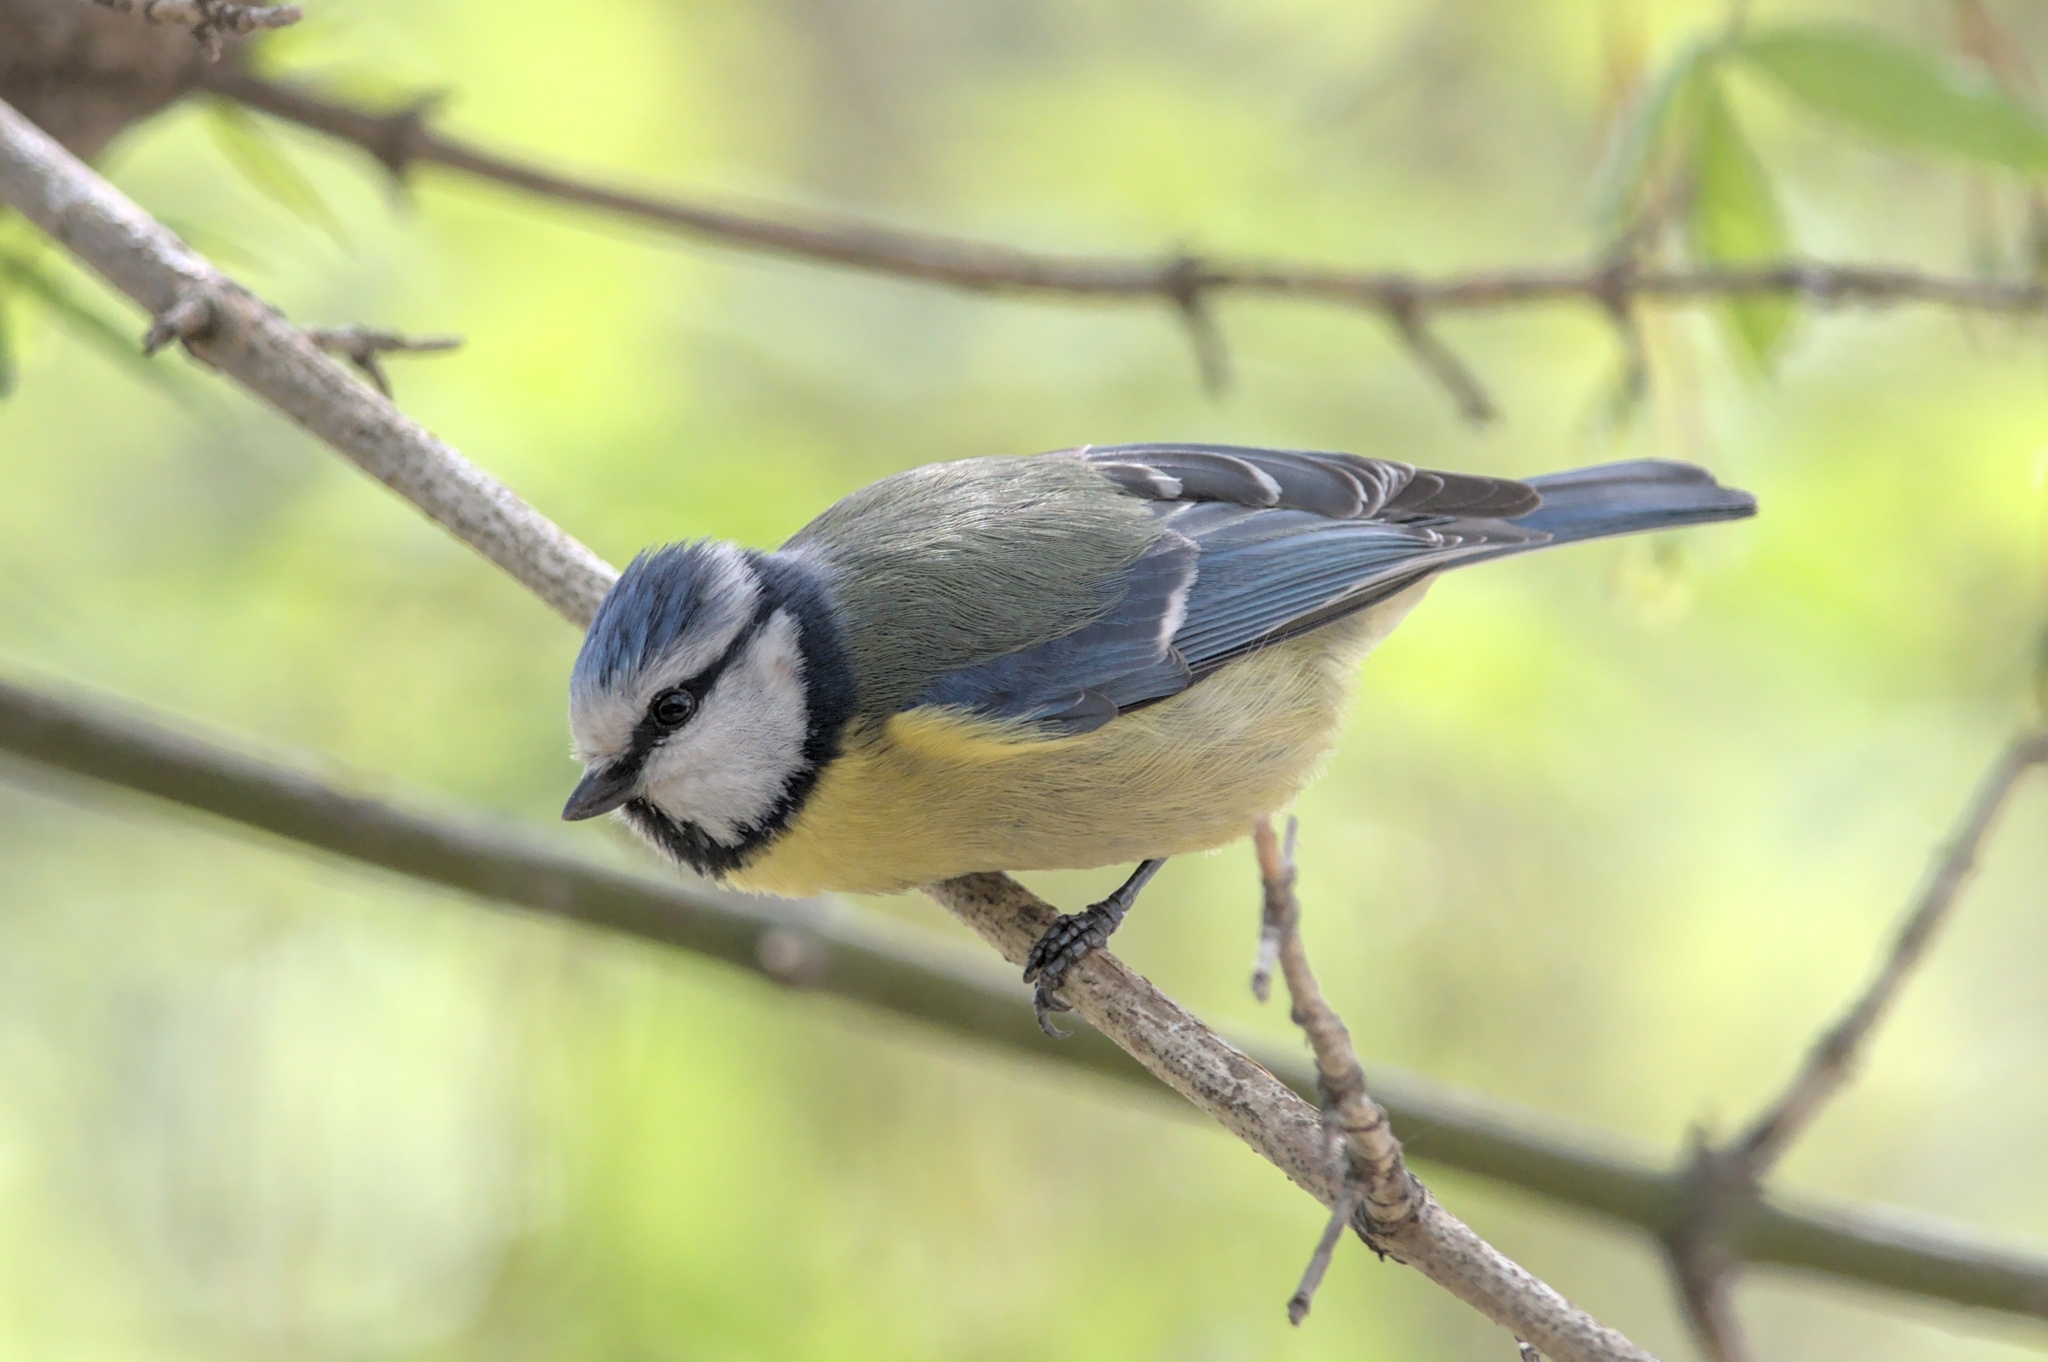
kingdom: Animalia
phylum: Chordata
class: Aves
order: Passeriformes
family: Paridae
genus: Cyanistes
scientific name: Cyanistes caeruleus
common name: Eurasian blue tit
